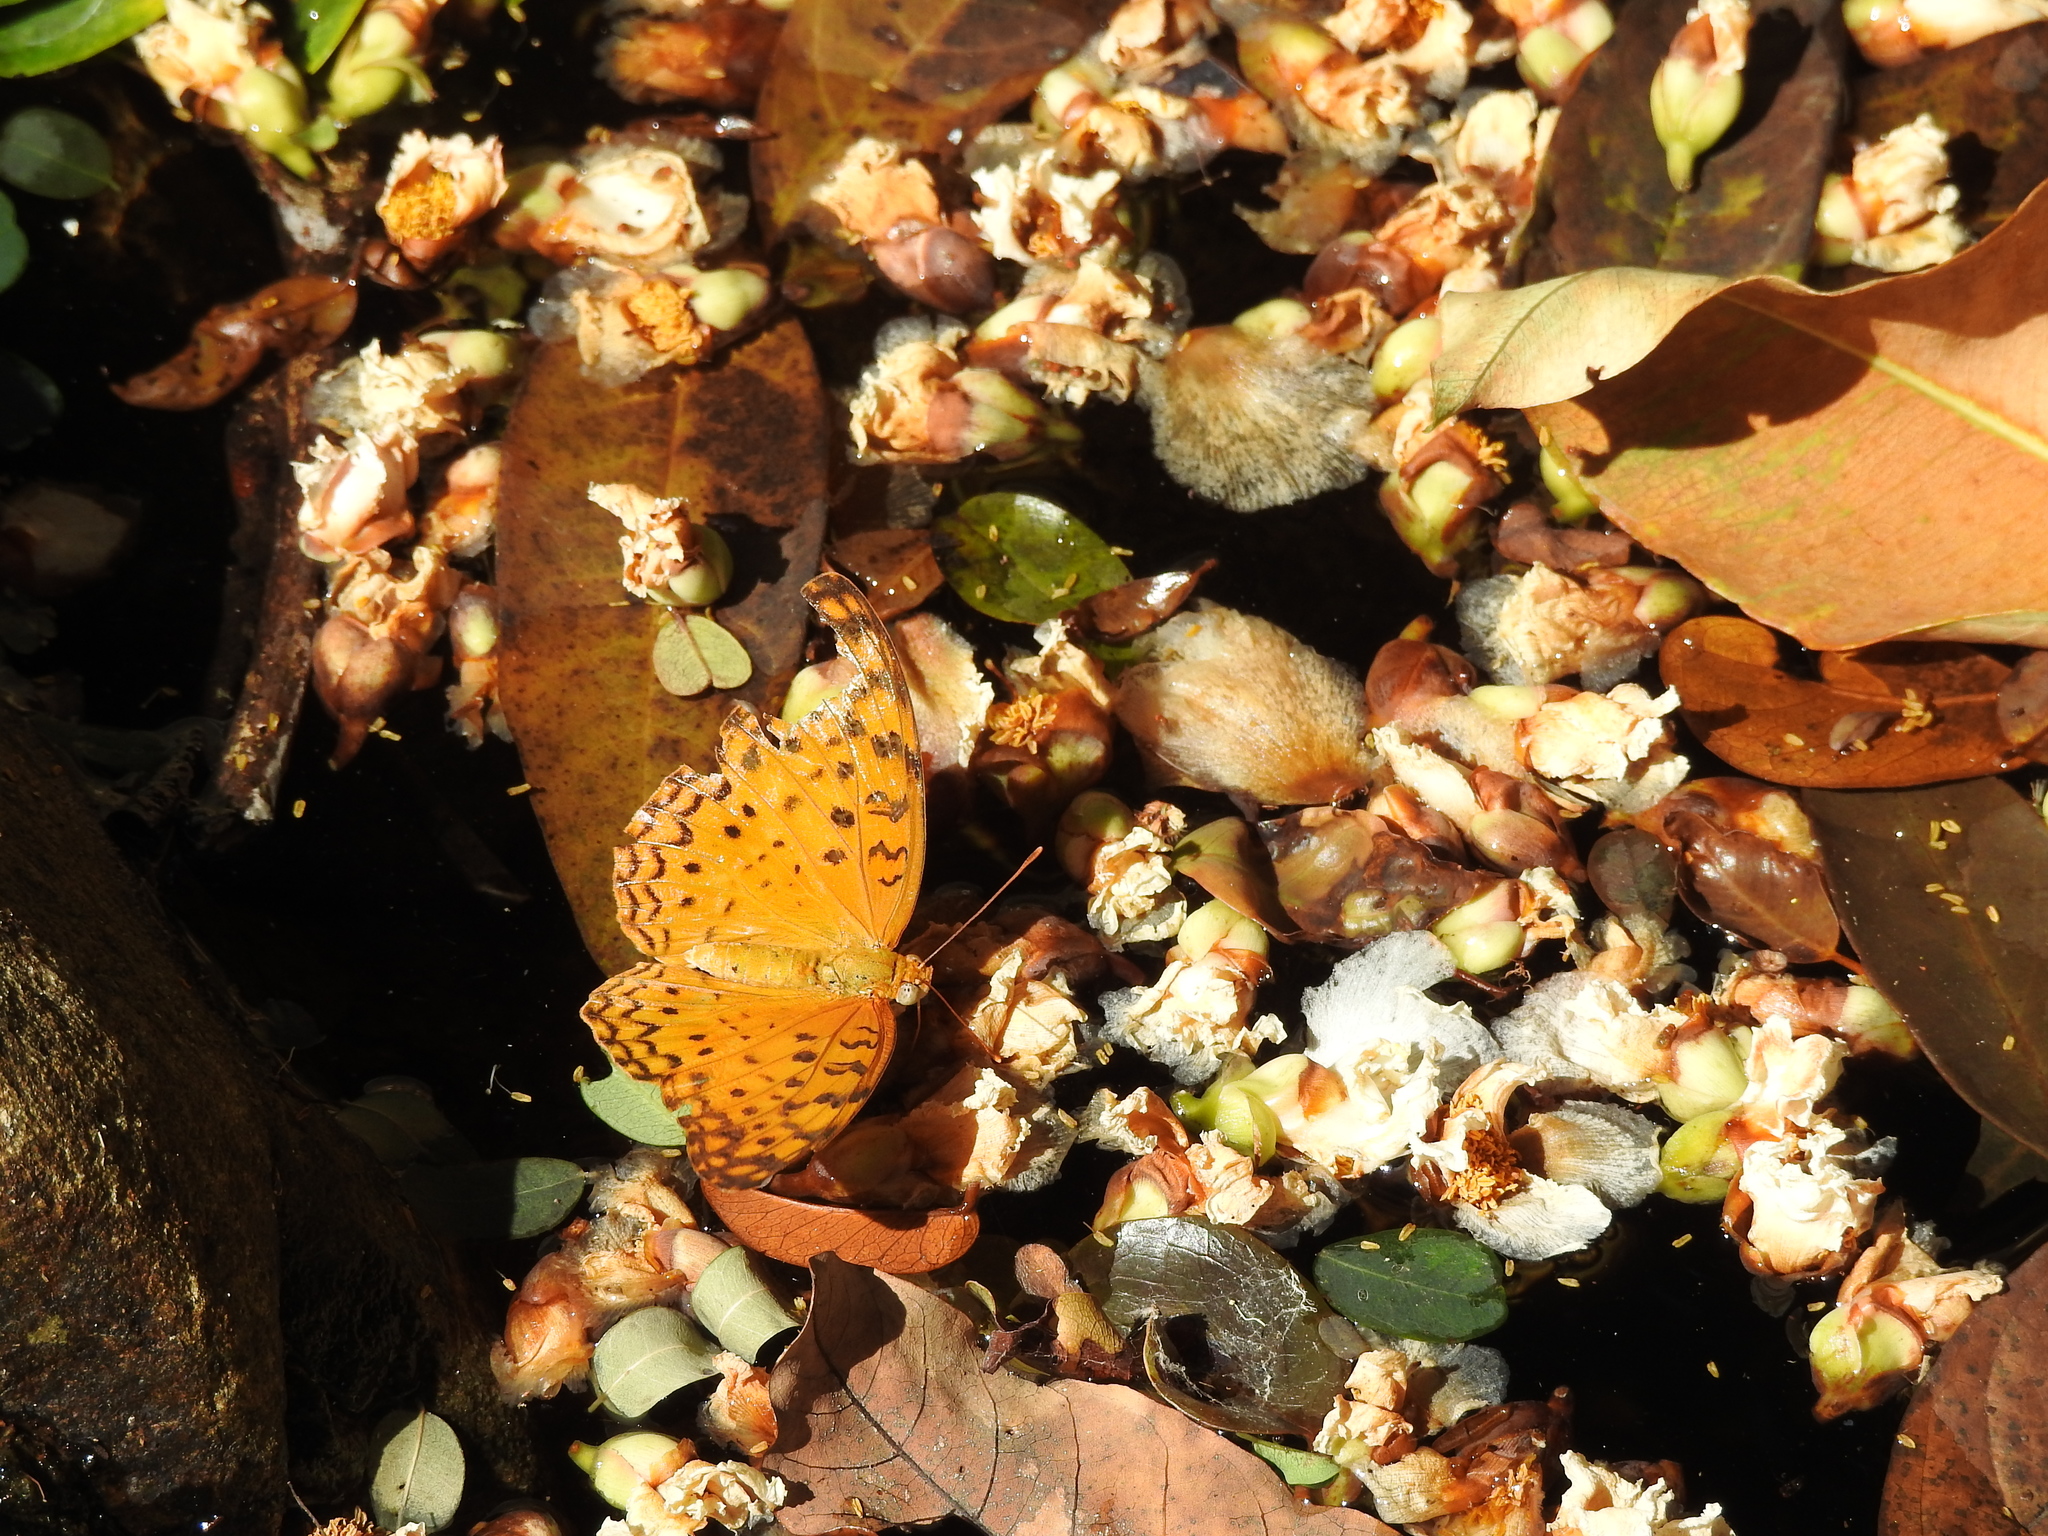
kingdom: Animalia
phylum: Arthropoda
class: Insecta
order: Lepidoptera
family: Nymphalidae
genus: Phalanta
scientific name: Phalanta phalantha
